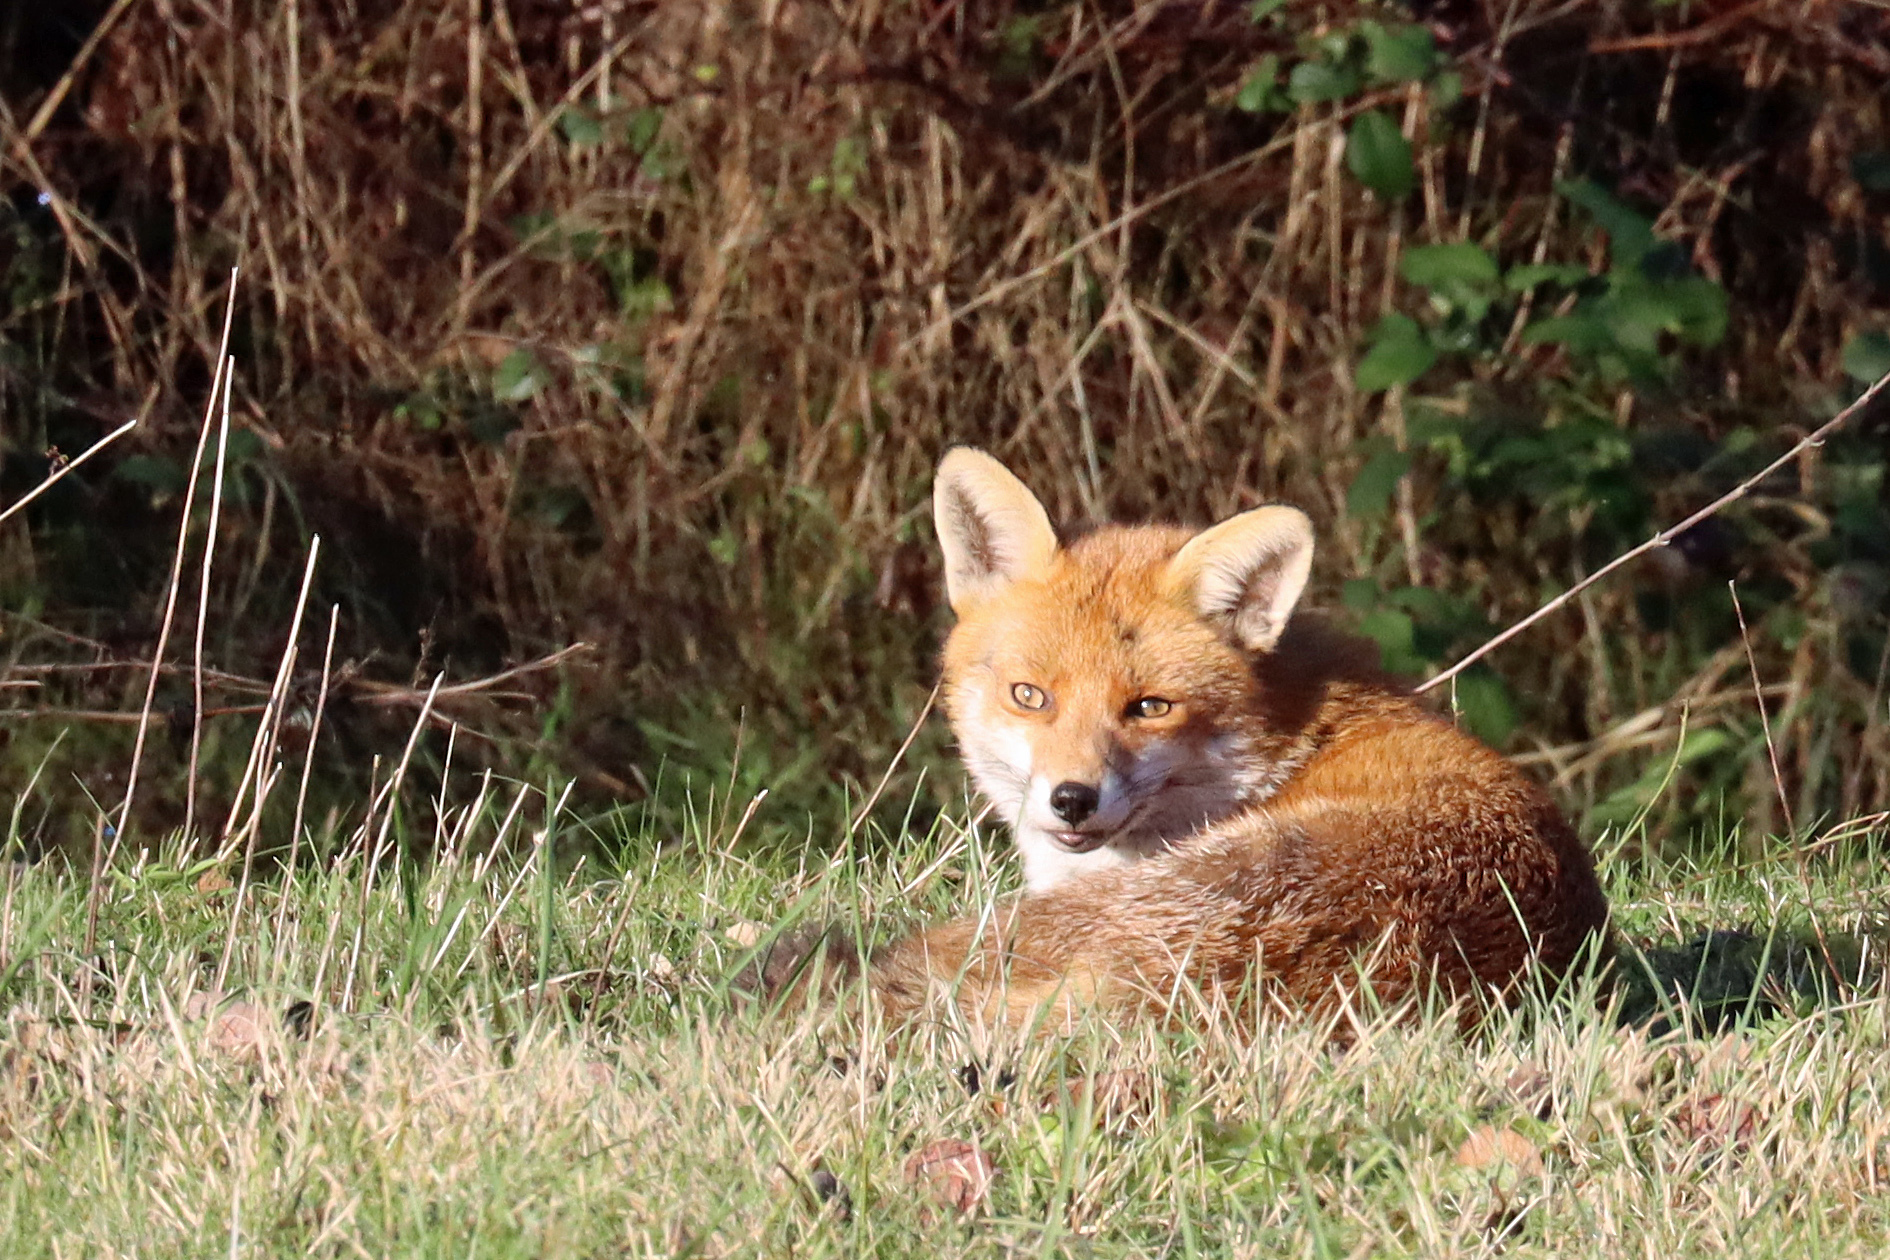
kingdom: Animalia
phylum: Chordata
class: Mammalia
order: Carnivora
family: Canidae
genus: Vulpes
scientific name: Vulpes vulpes
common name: Red fox
